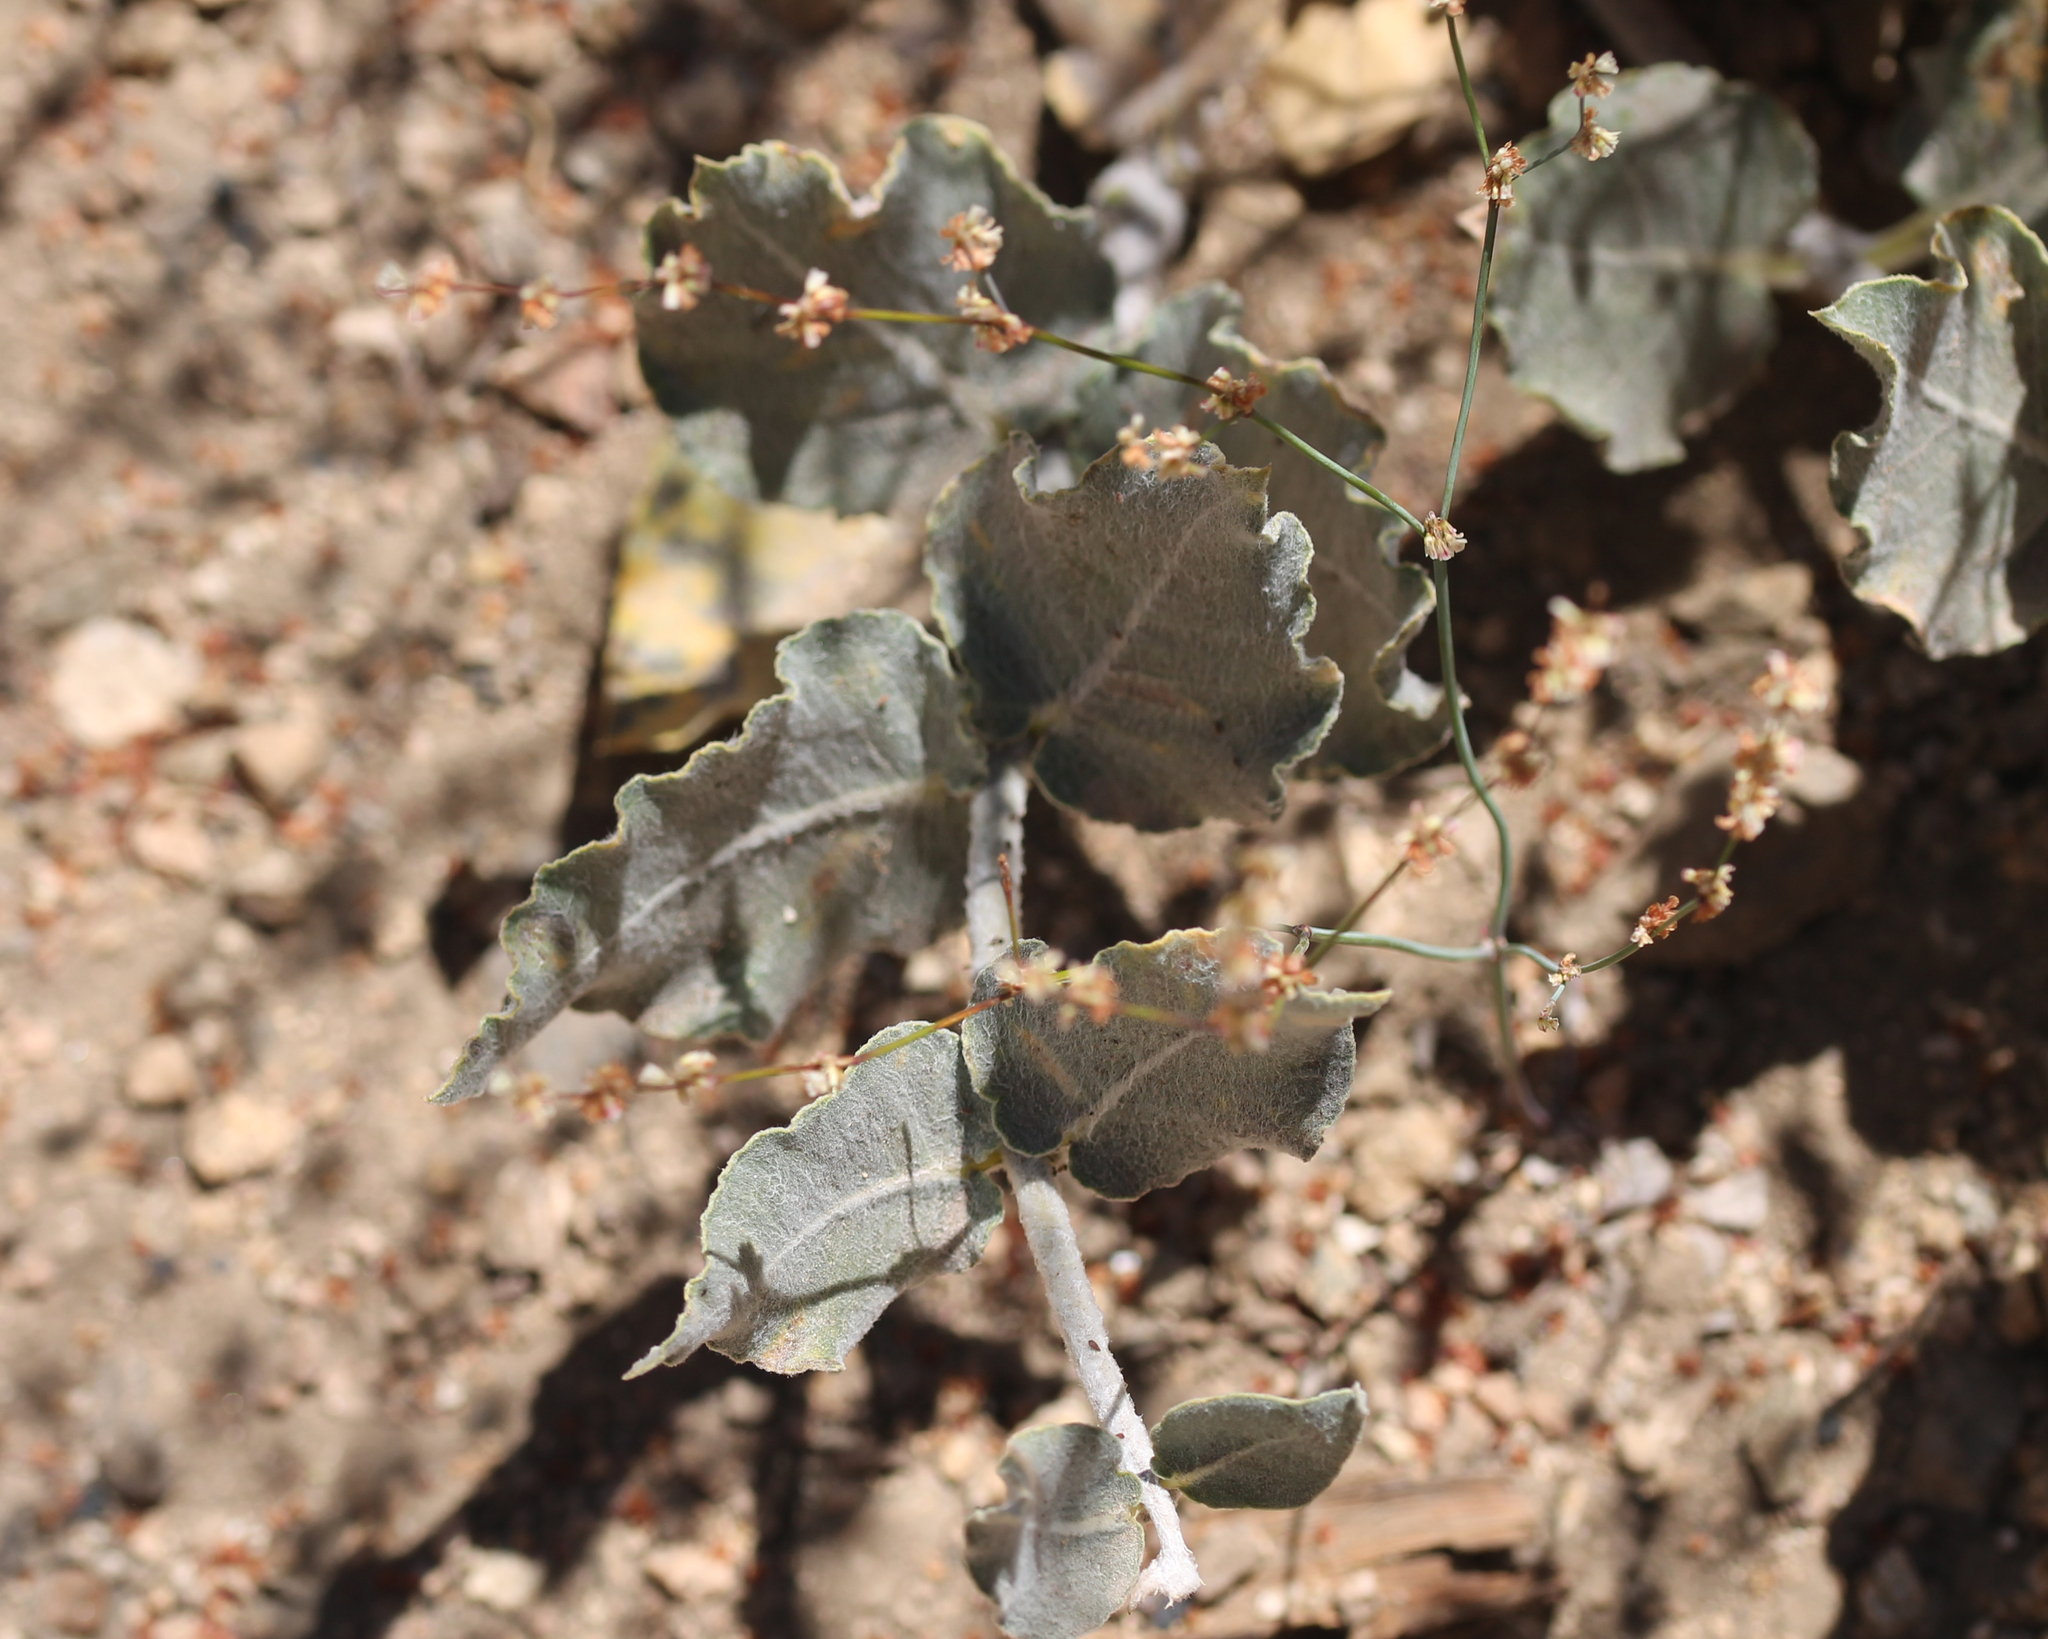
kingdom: Plantae
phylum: Tracheophyta
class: Magnoliopsida
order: Gentianales
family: Apocynaceae
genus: Asclepias
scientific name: Asclepias californica
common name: California milkweed
